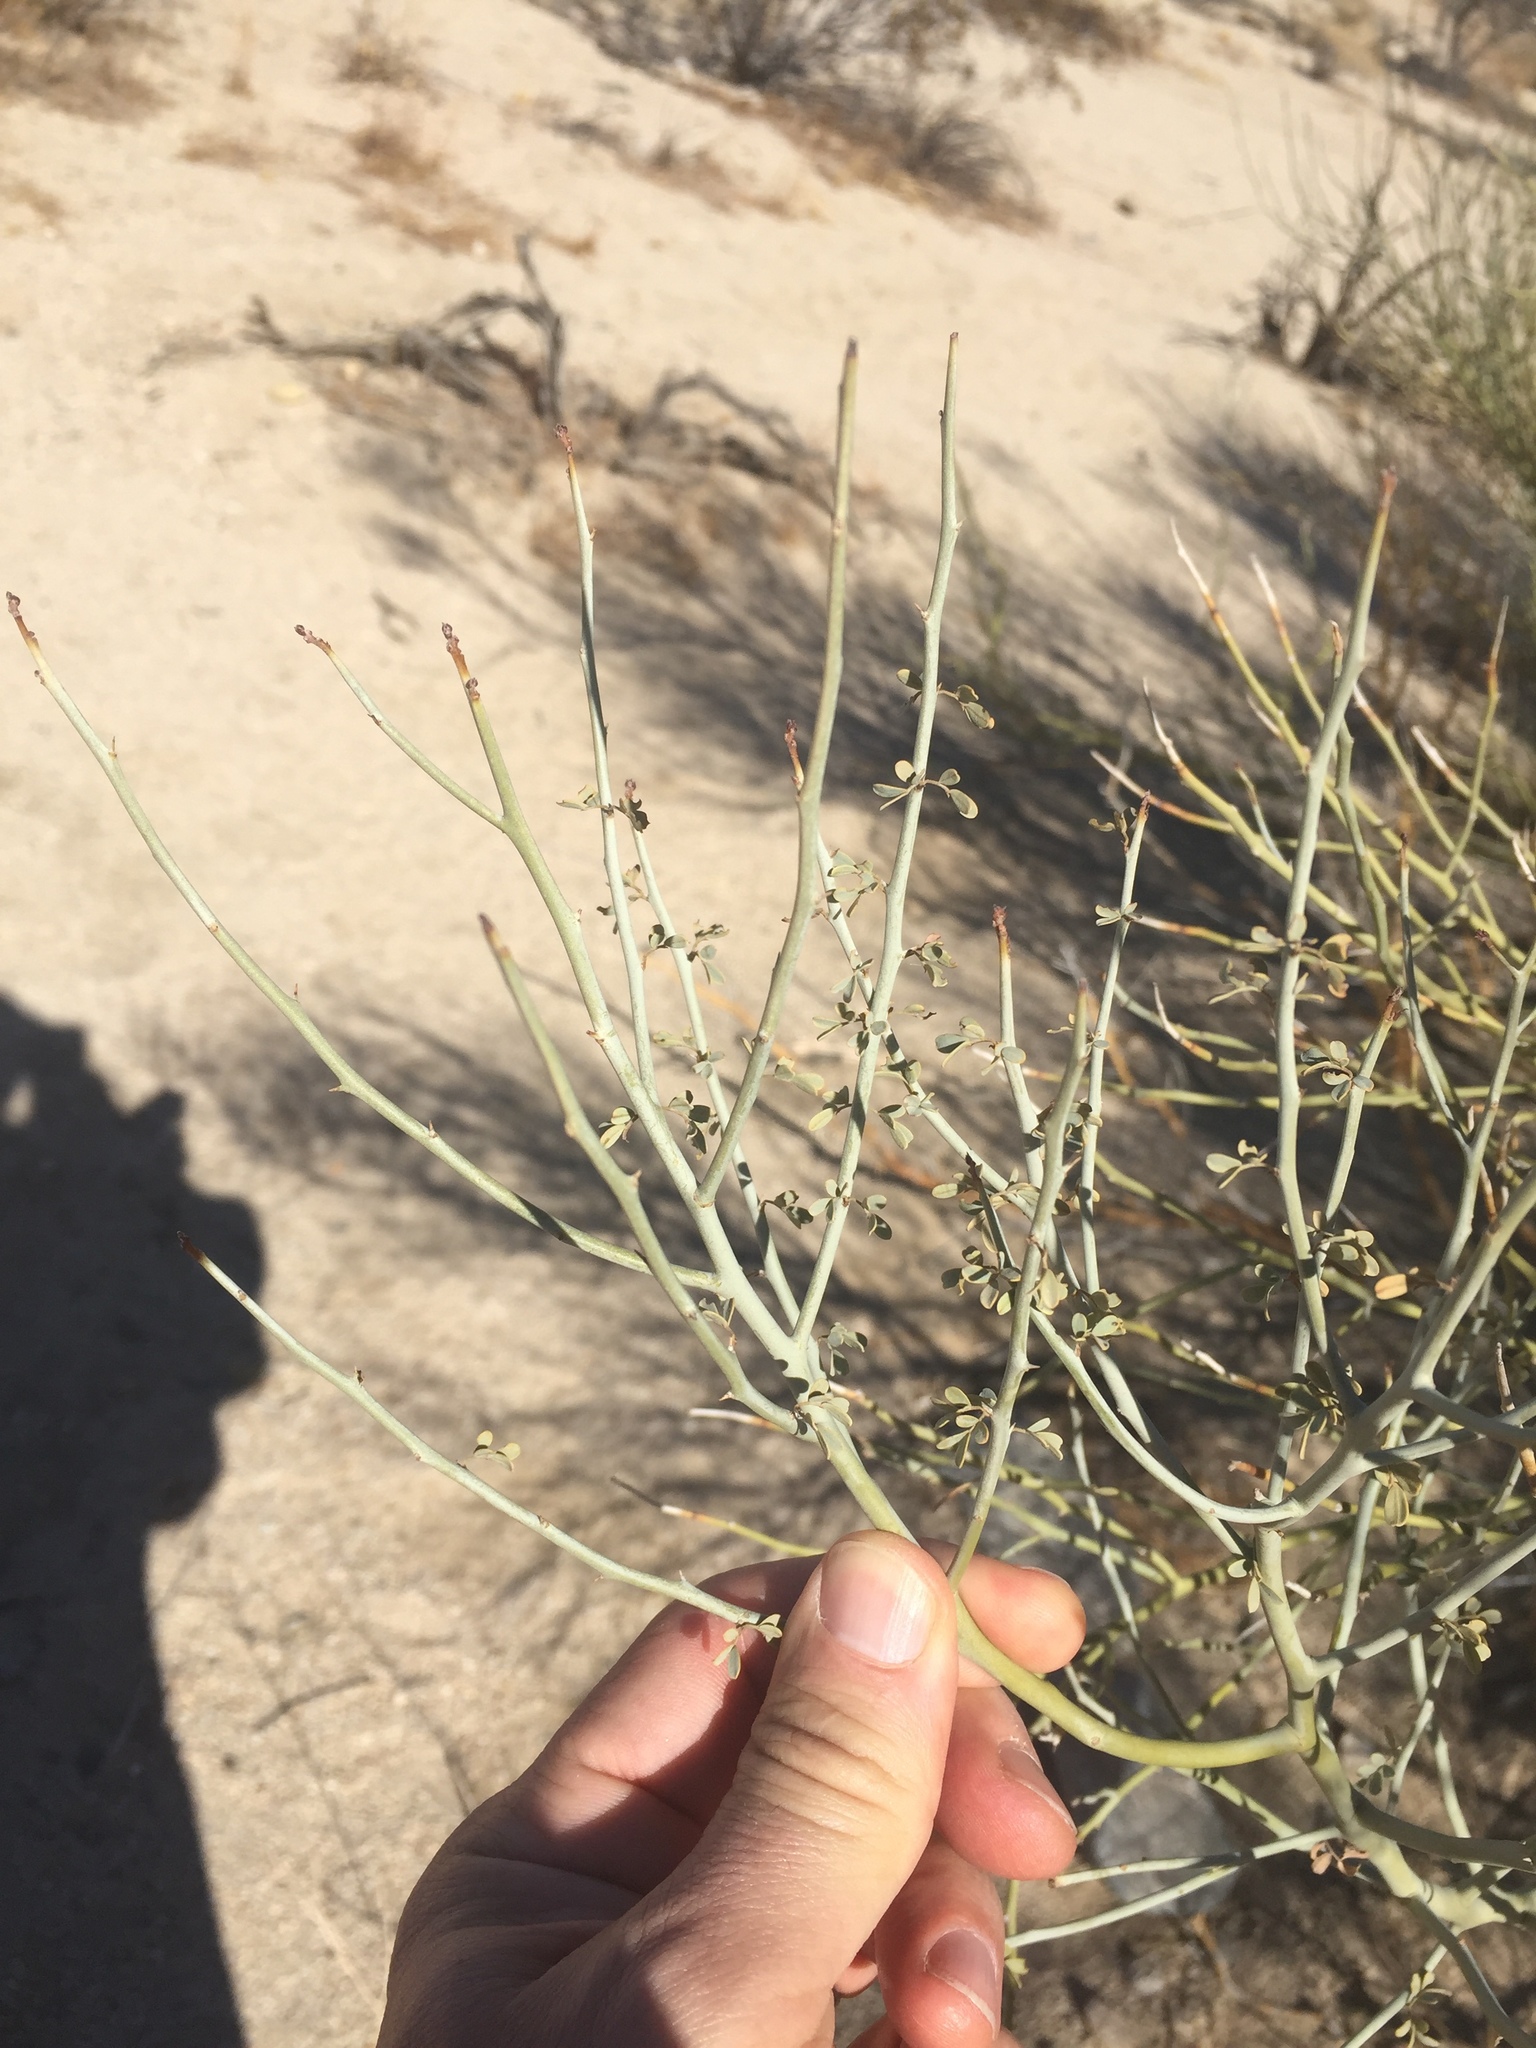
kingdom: Plantae
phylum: Tracheophyta
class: Magnoliopsida
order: Fabales
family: Fabaceae
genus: Parkinsonia
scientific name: Parkinsonia florida
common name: Blue paloverde
